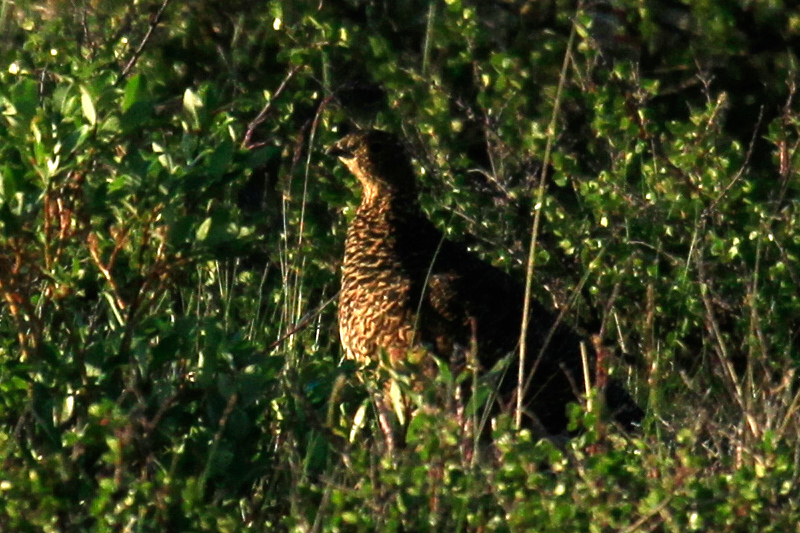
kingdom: Animalia
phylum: Chordata
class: Aves
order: Galliformes
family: Phasianidae
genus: Lagopus
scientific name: Lagopus muta
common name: Rock ptarmigan
